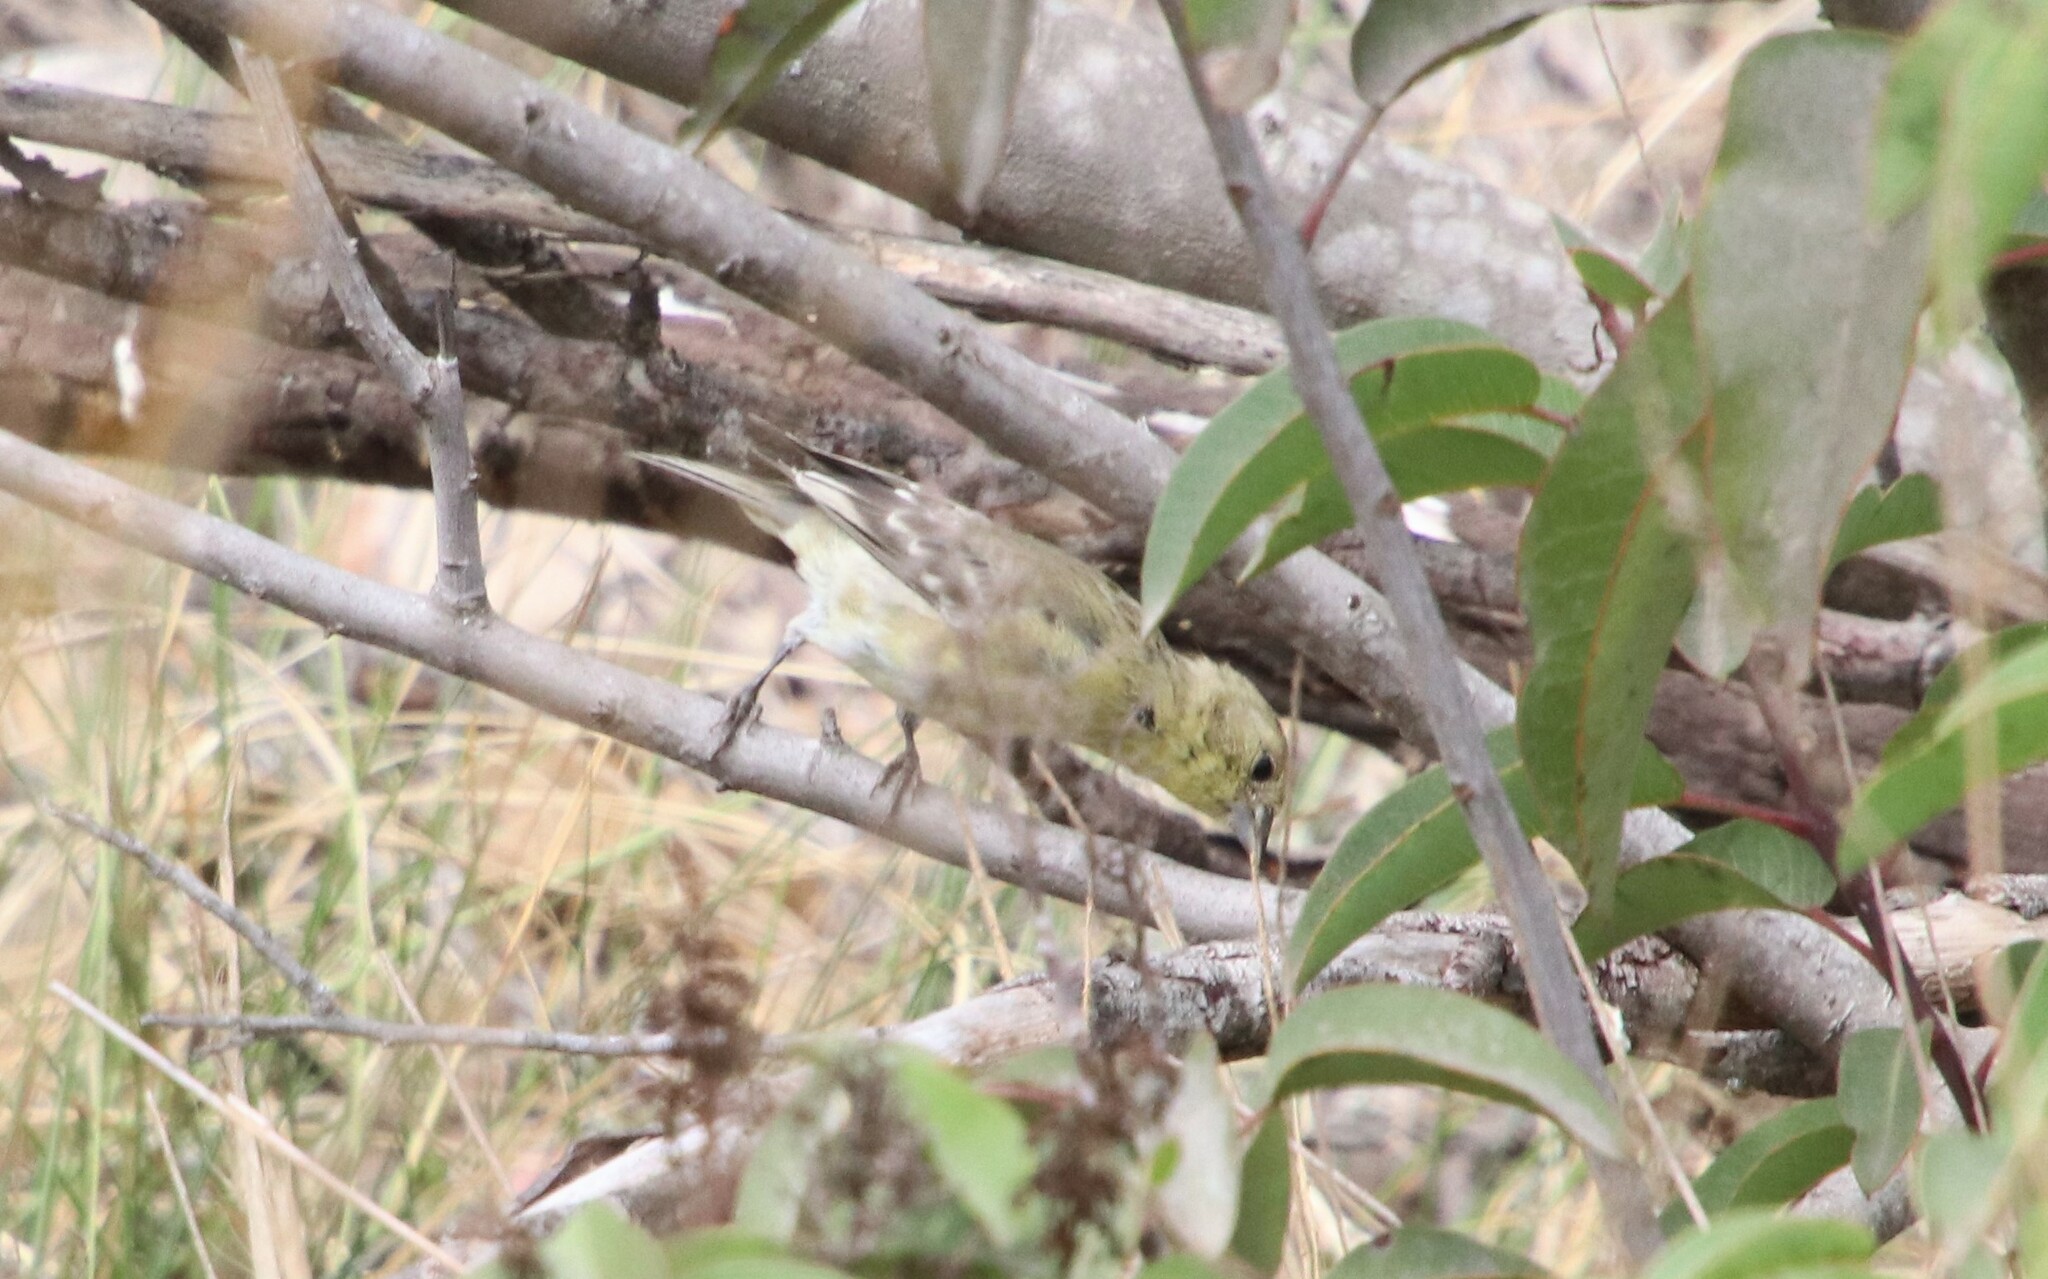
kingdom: Animalia
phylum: Chordata
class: Aves
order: Passeriformes
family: Fringillidae
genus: Spinus
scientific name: Spinus psaltria
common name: Lesser goldfinch
